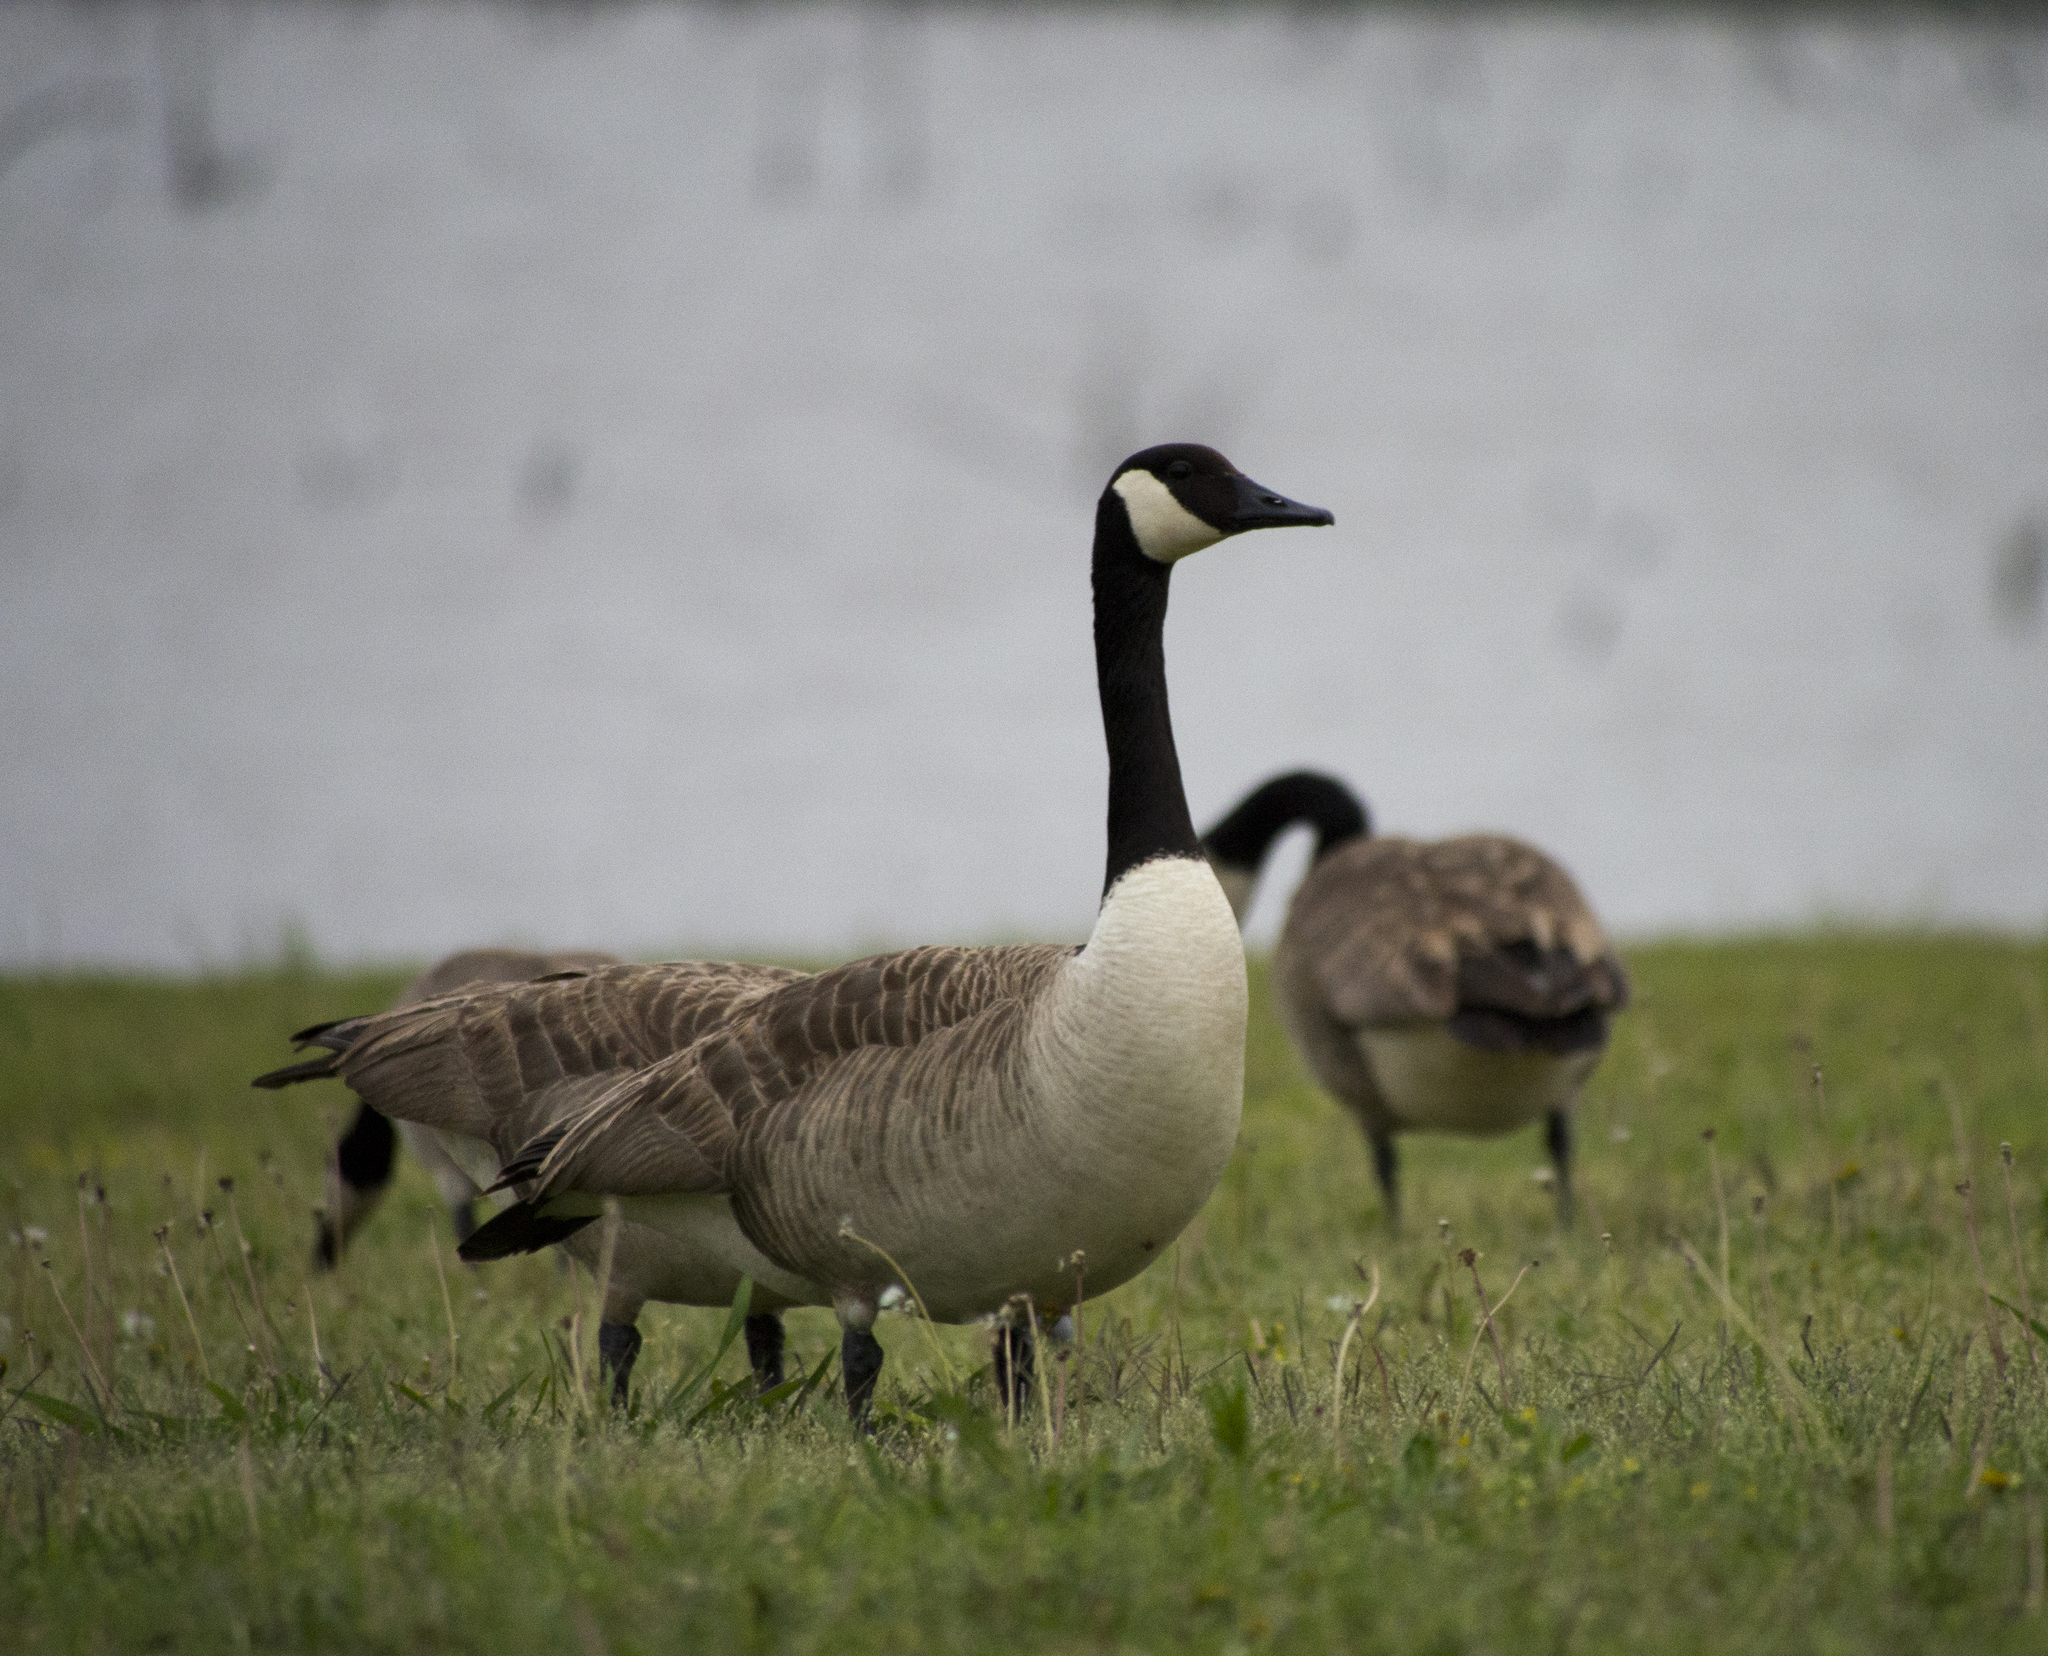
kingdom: Animalia
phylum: Chordata
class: Aves
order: Anseriformes
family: Anatidae
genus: Branta
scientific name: Branta canadensis
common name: Canada goose
